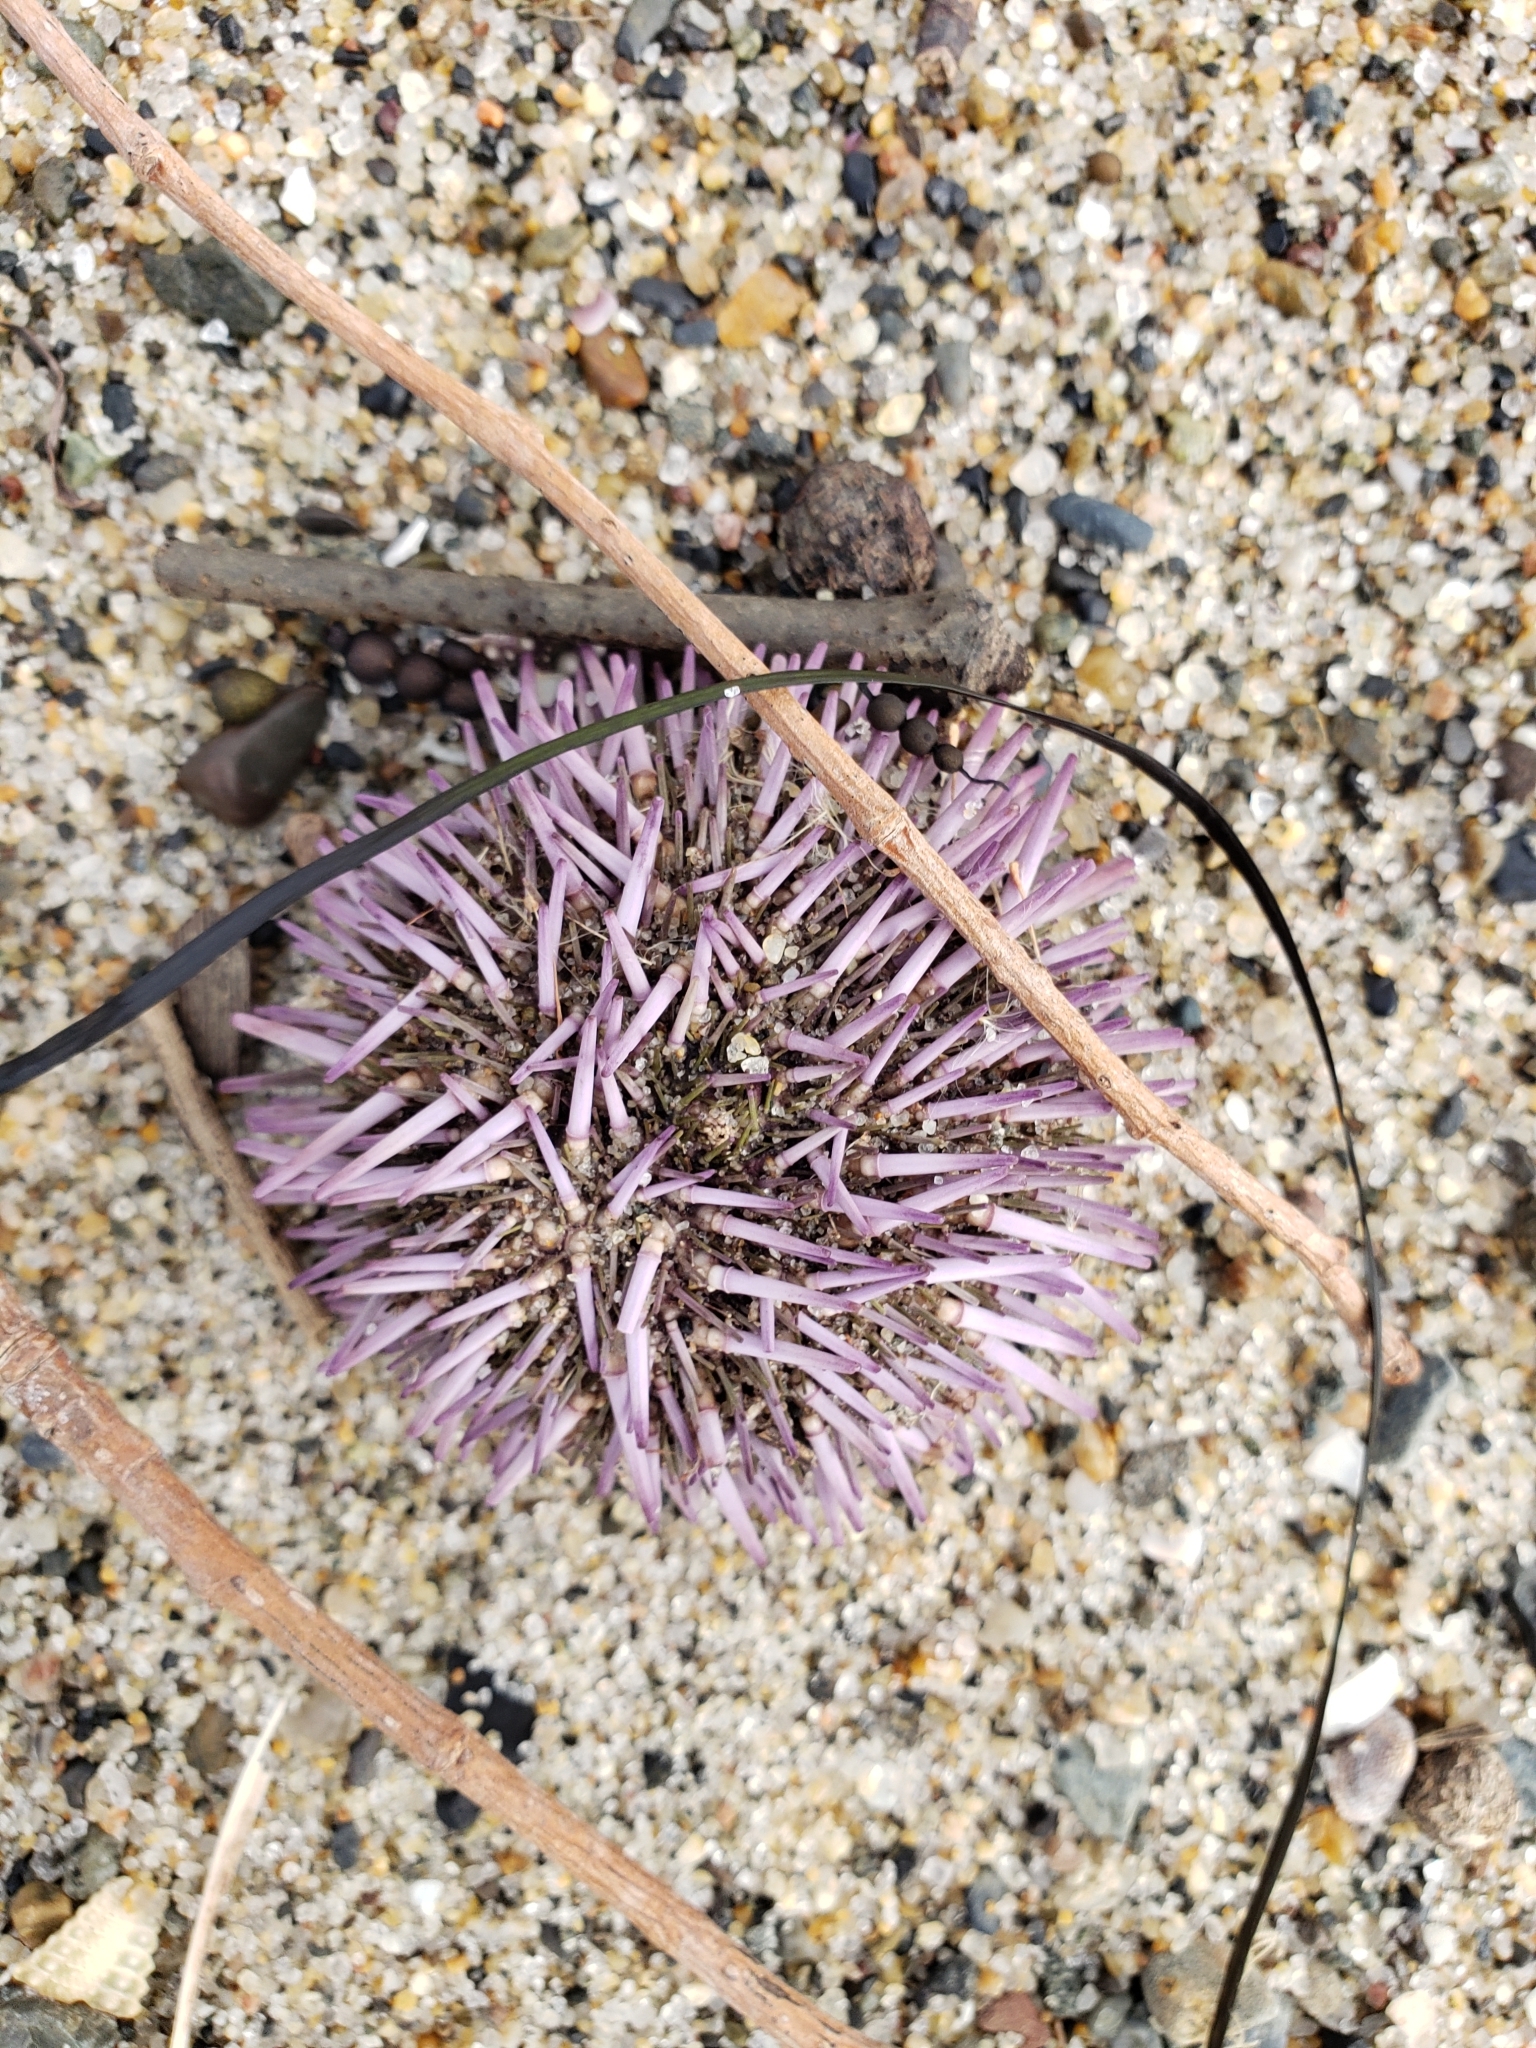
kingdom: Animalia
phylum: Echinodermata
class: Echinoidea
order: Camarodonta
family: Strongylocentrotidae
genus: Strongylocentrotus
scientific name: Strongylocentrotus purpuratus
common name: Purple sea urchin
